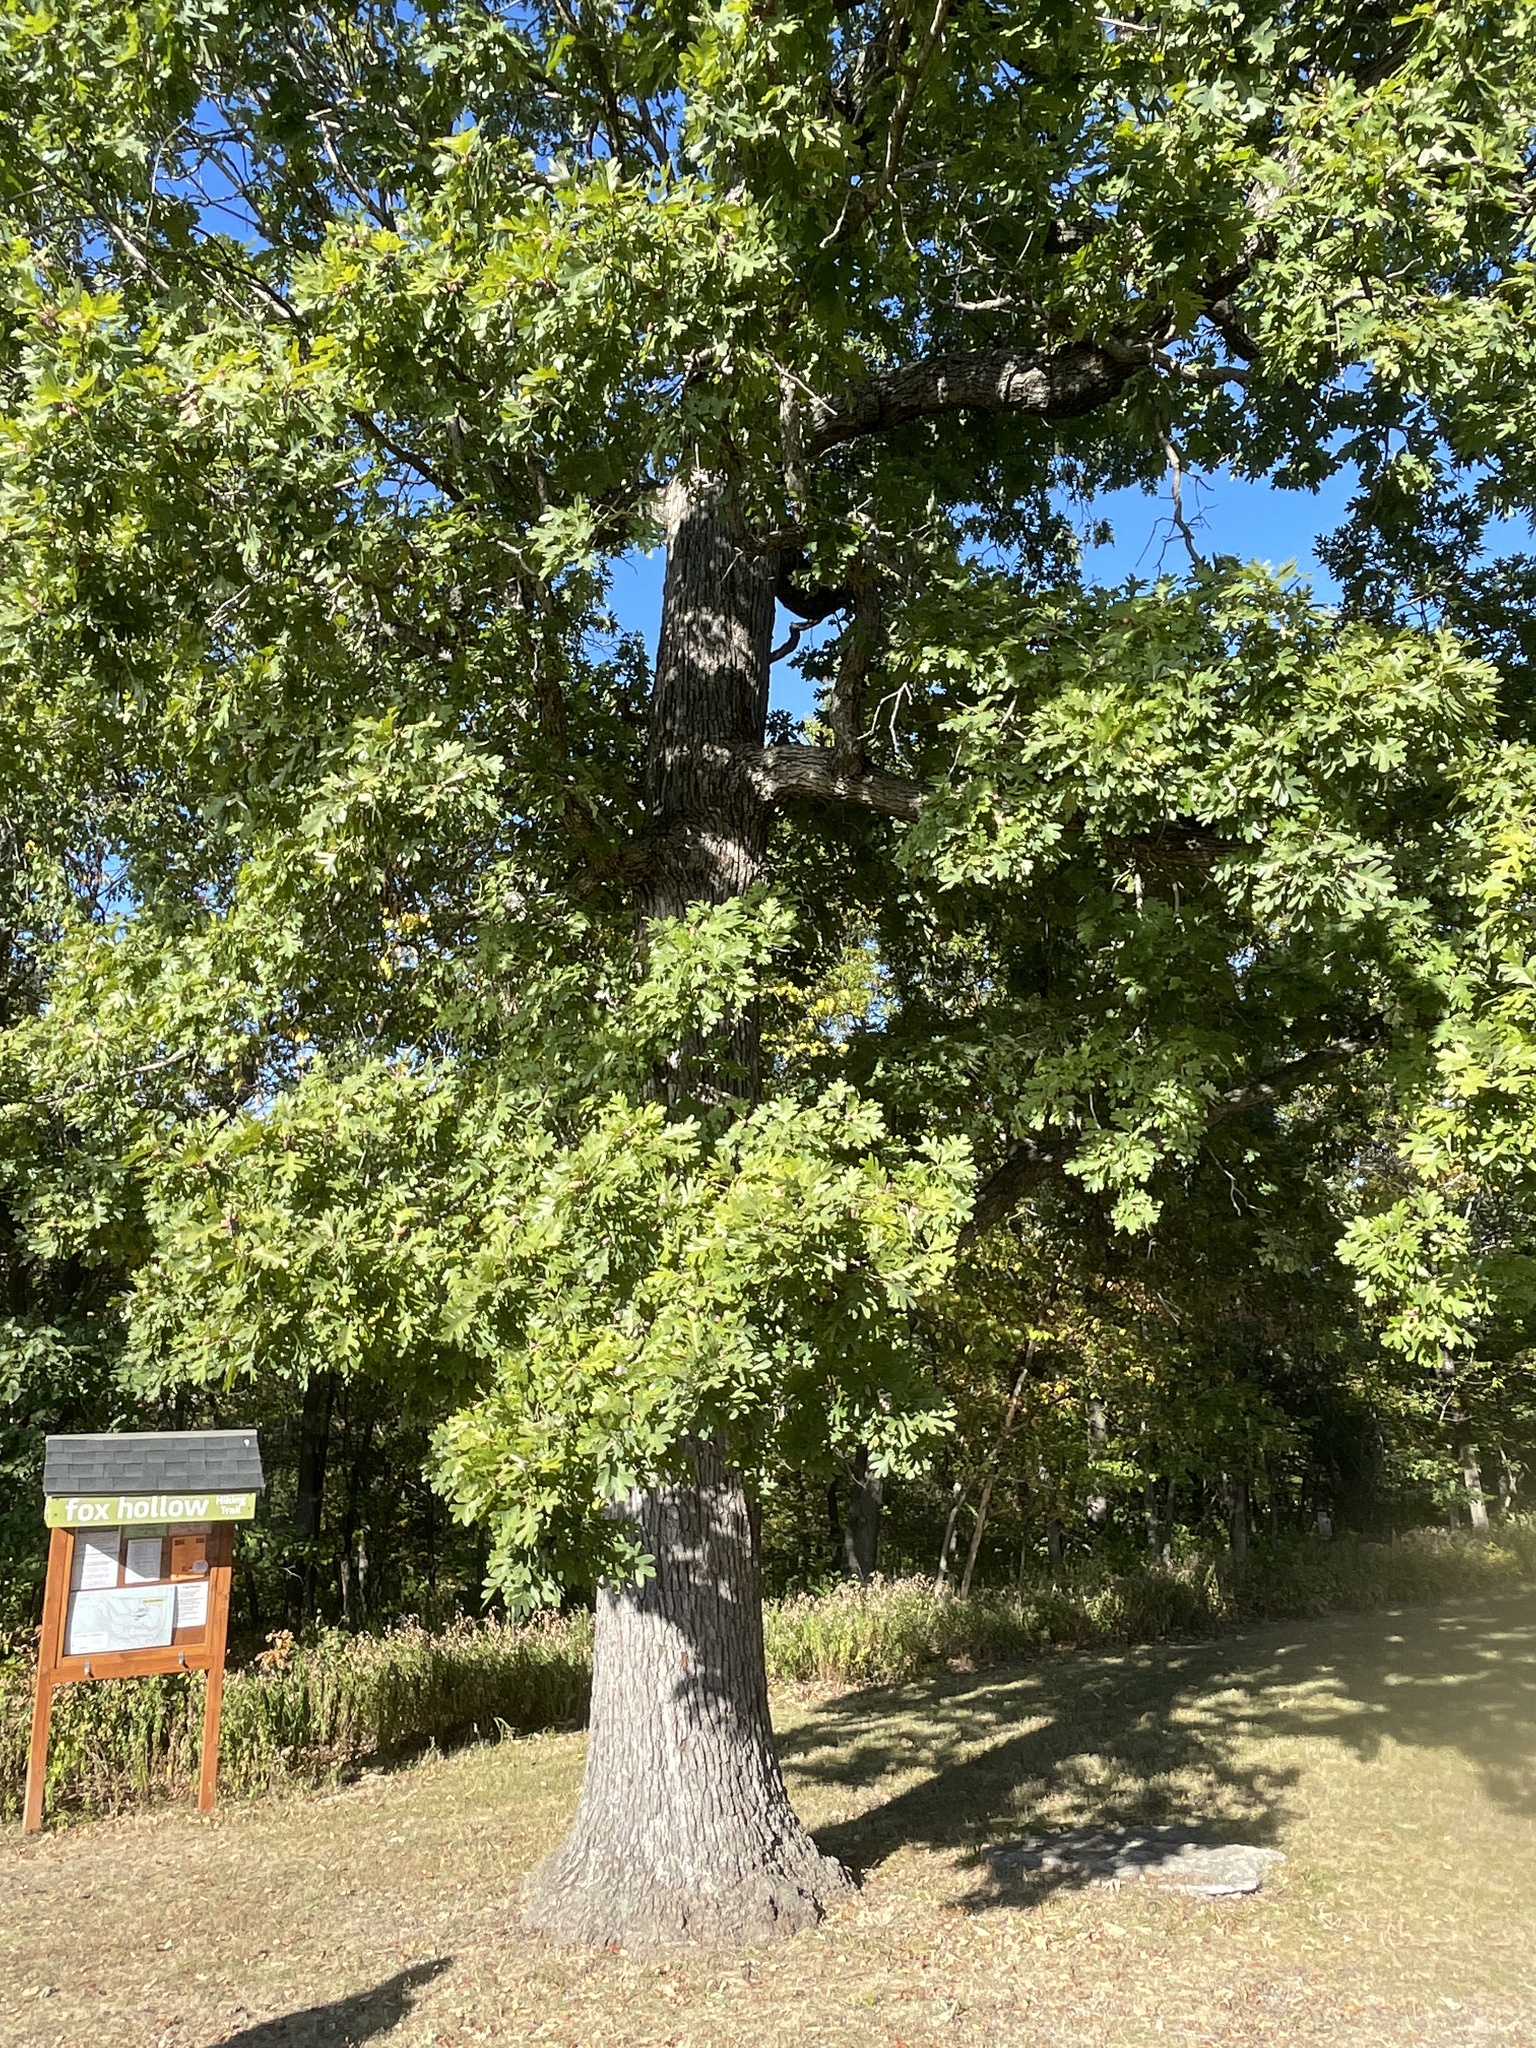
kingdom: Plantae
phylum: Tracheophyta
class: Magnoliopsida
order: Fagales
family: Fagaceae
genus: Quercus
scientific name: Quercus alba
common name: White oak
